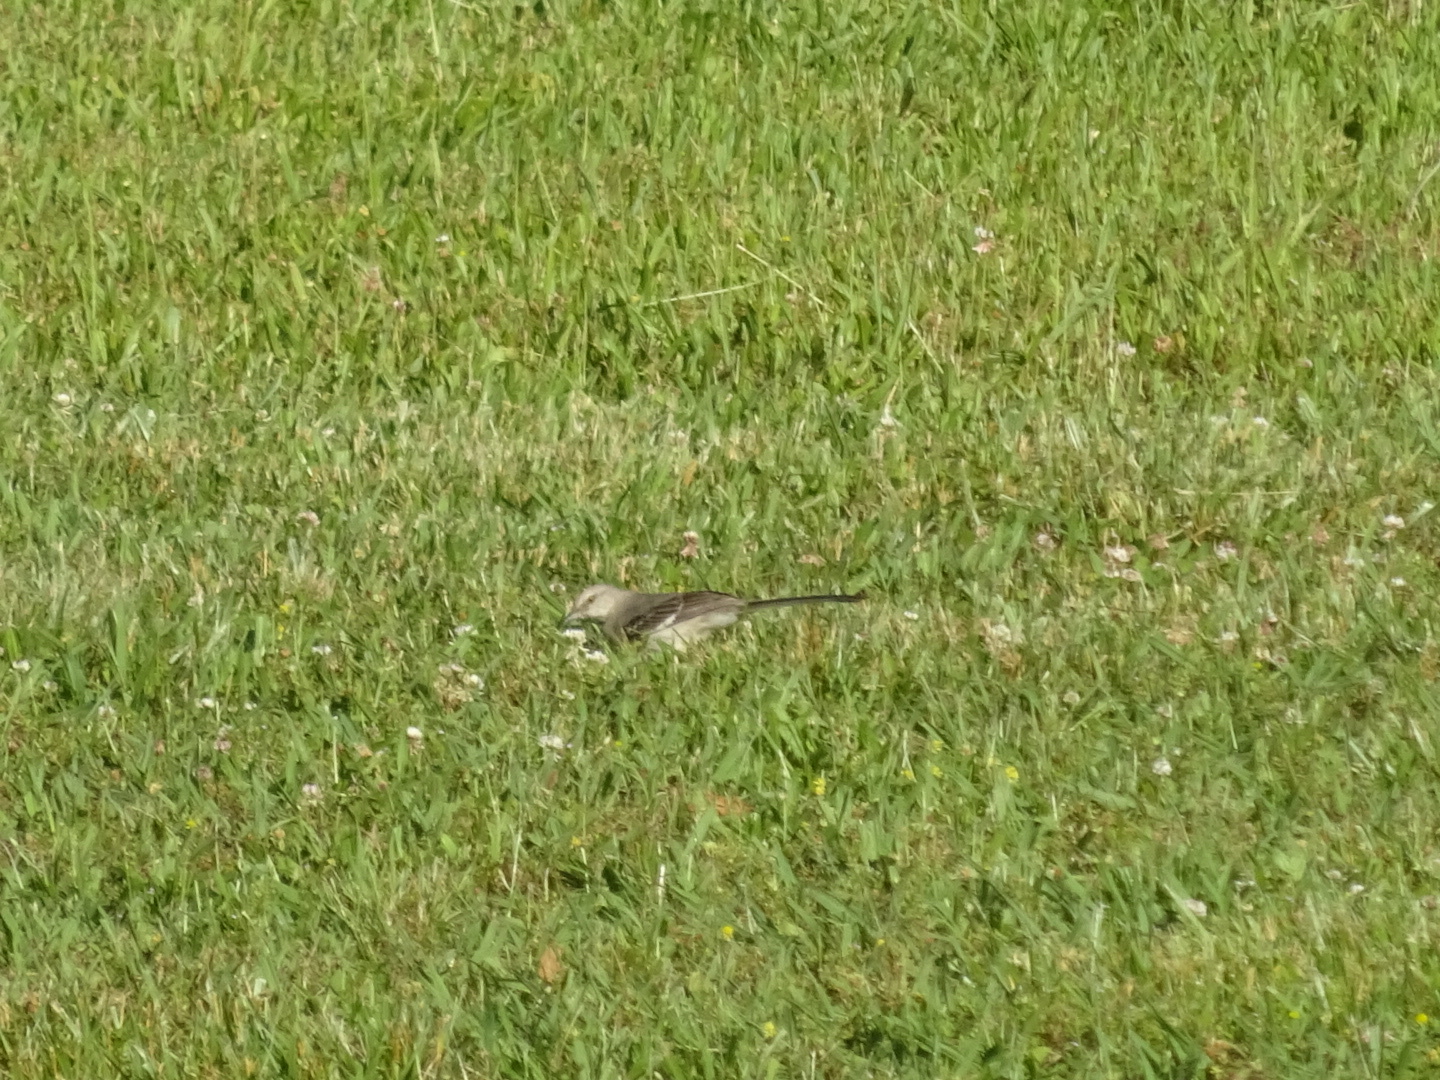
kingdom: Animalia
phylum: Chordata
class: Aves
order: Passeriformes
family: Mimidae
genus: Mimus
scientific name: Mimus polyglottos
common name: Northern mockingbird
